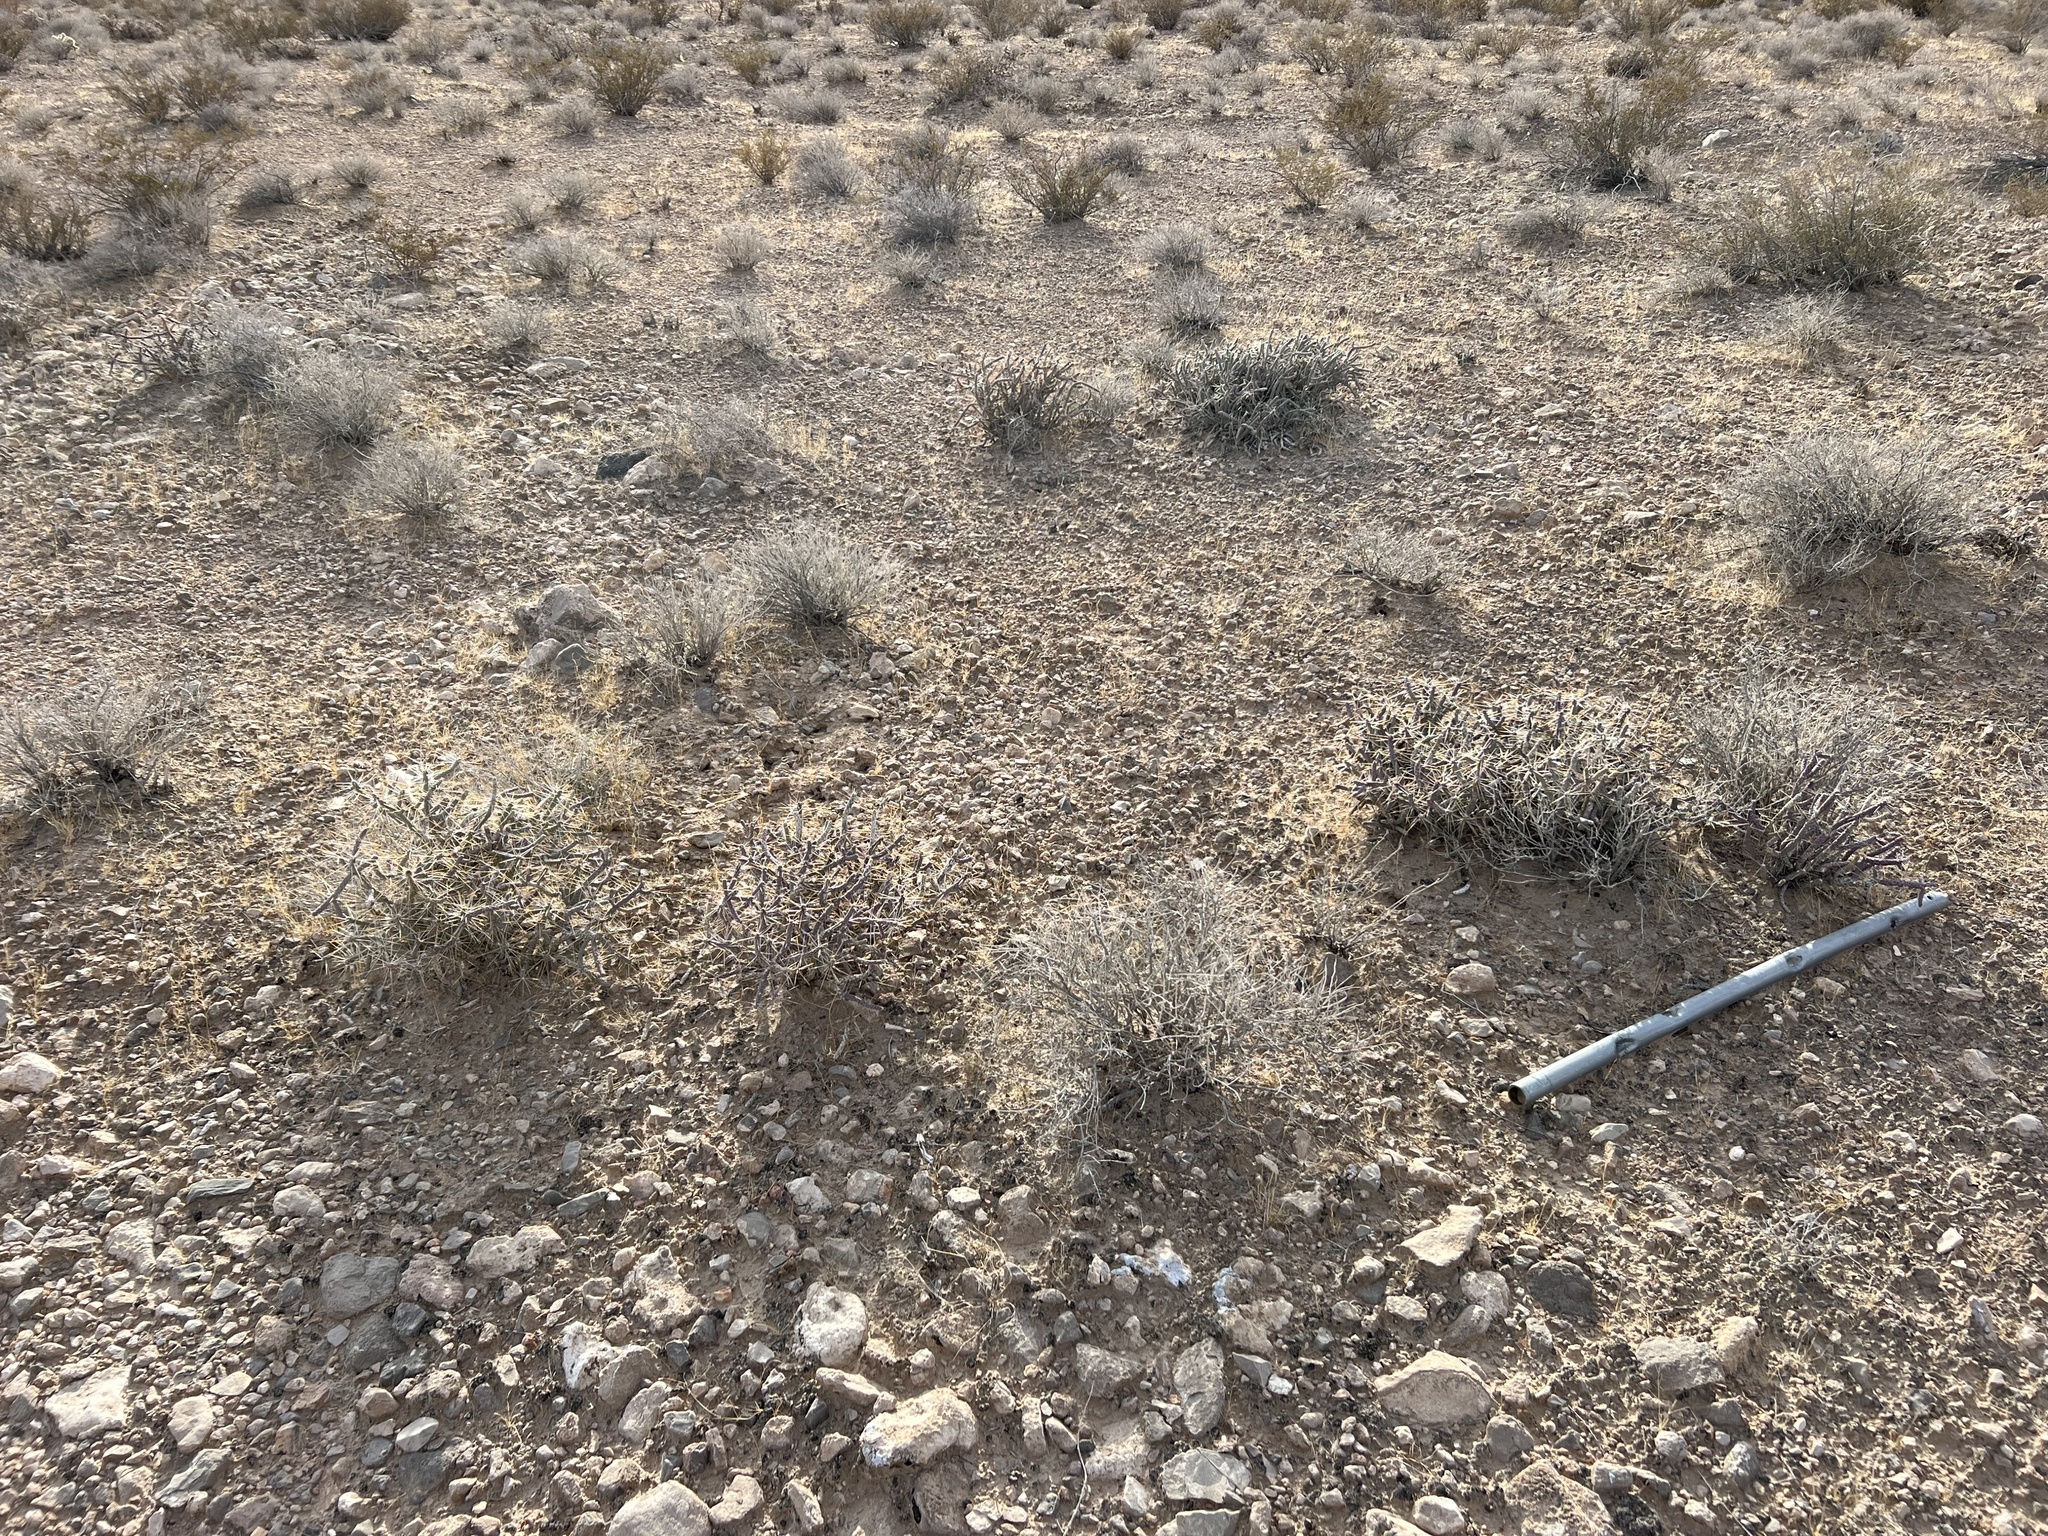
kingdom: Plantae
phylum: Tracheophyta
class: Magnoliopsida
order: Caryophyllales
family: Cactaceae
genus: Cylindropuntia
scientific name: Cylindropuntia ramosissima
